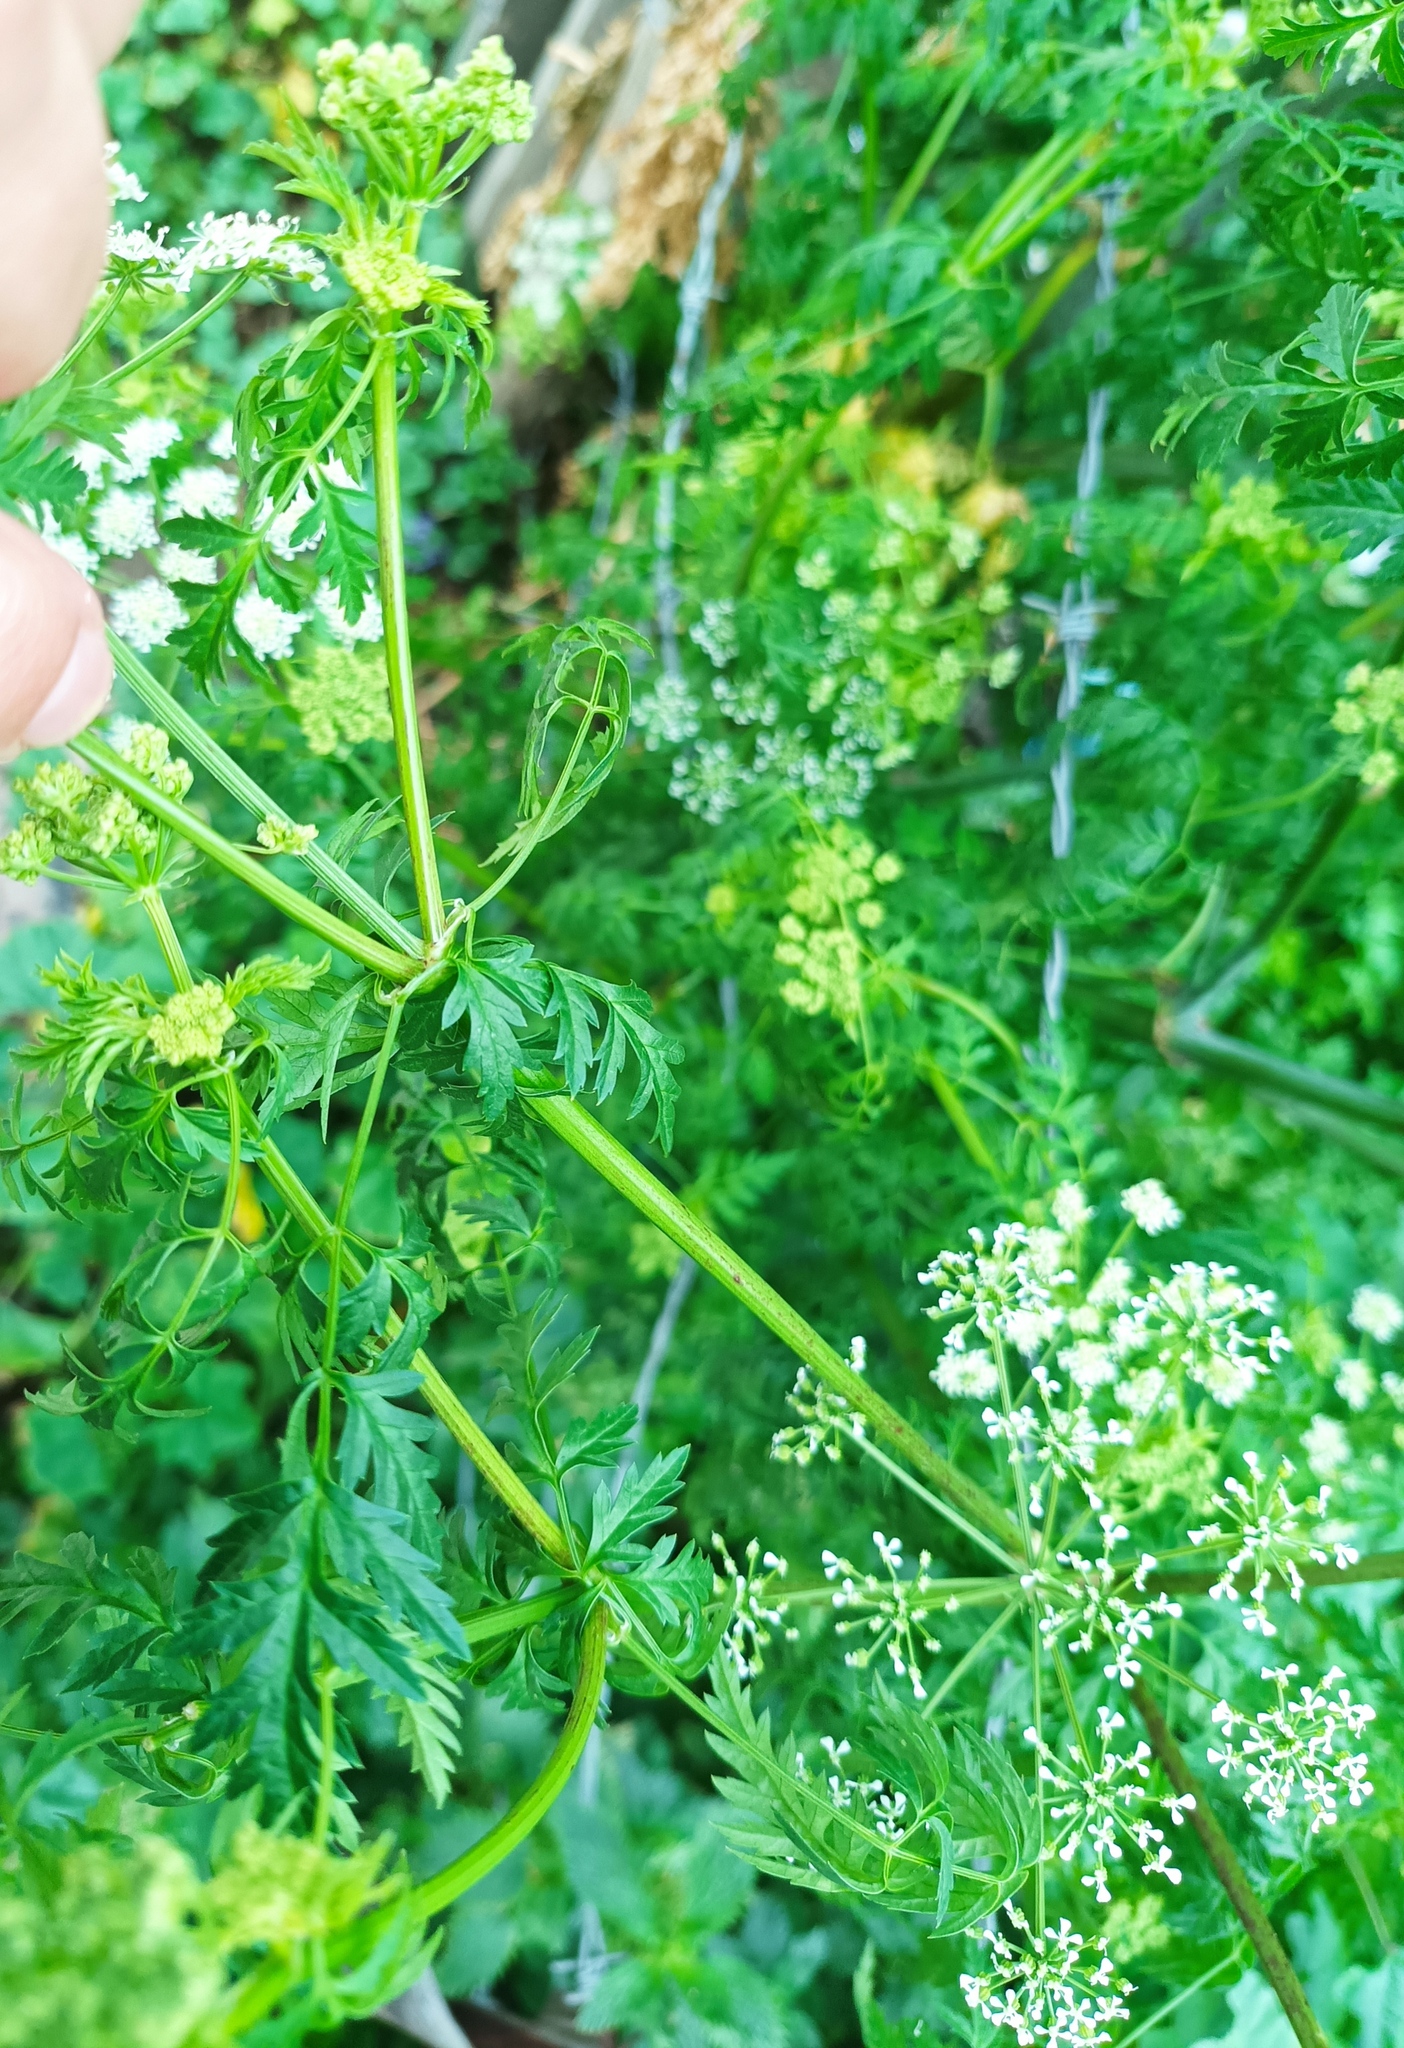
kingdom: Plantae
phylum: Tracheophyta
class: Magnoliopsida
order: Apiales
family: Apiaceae
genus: Conium
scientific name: Conium maculatum
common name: Hemlock
